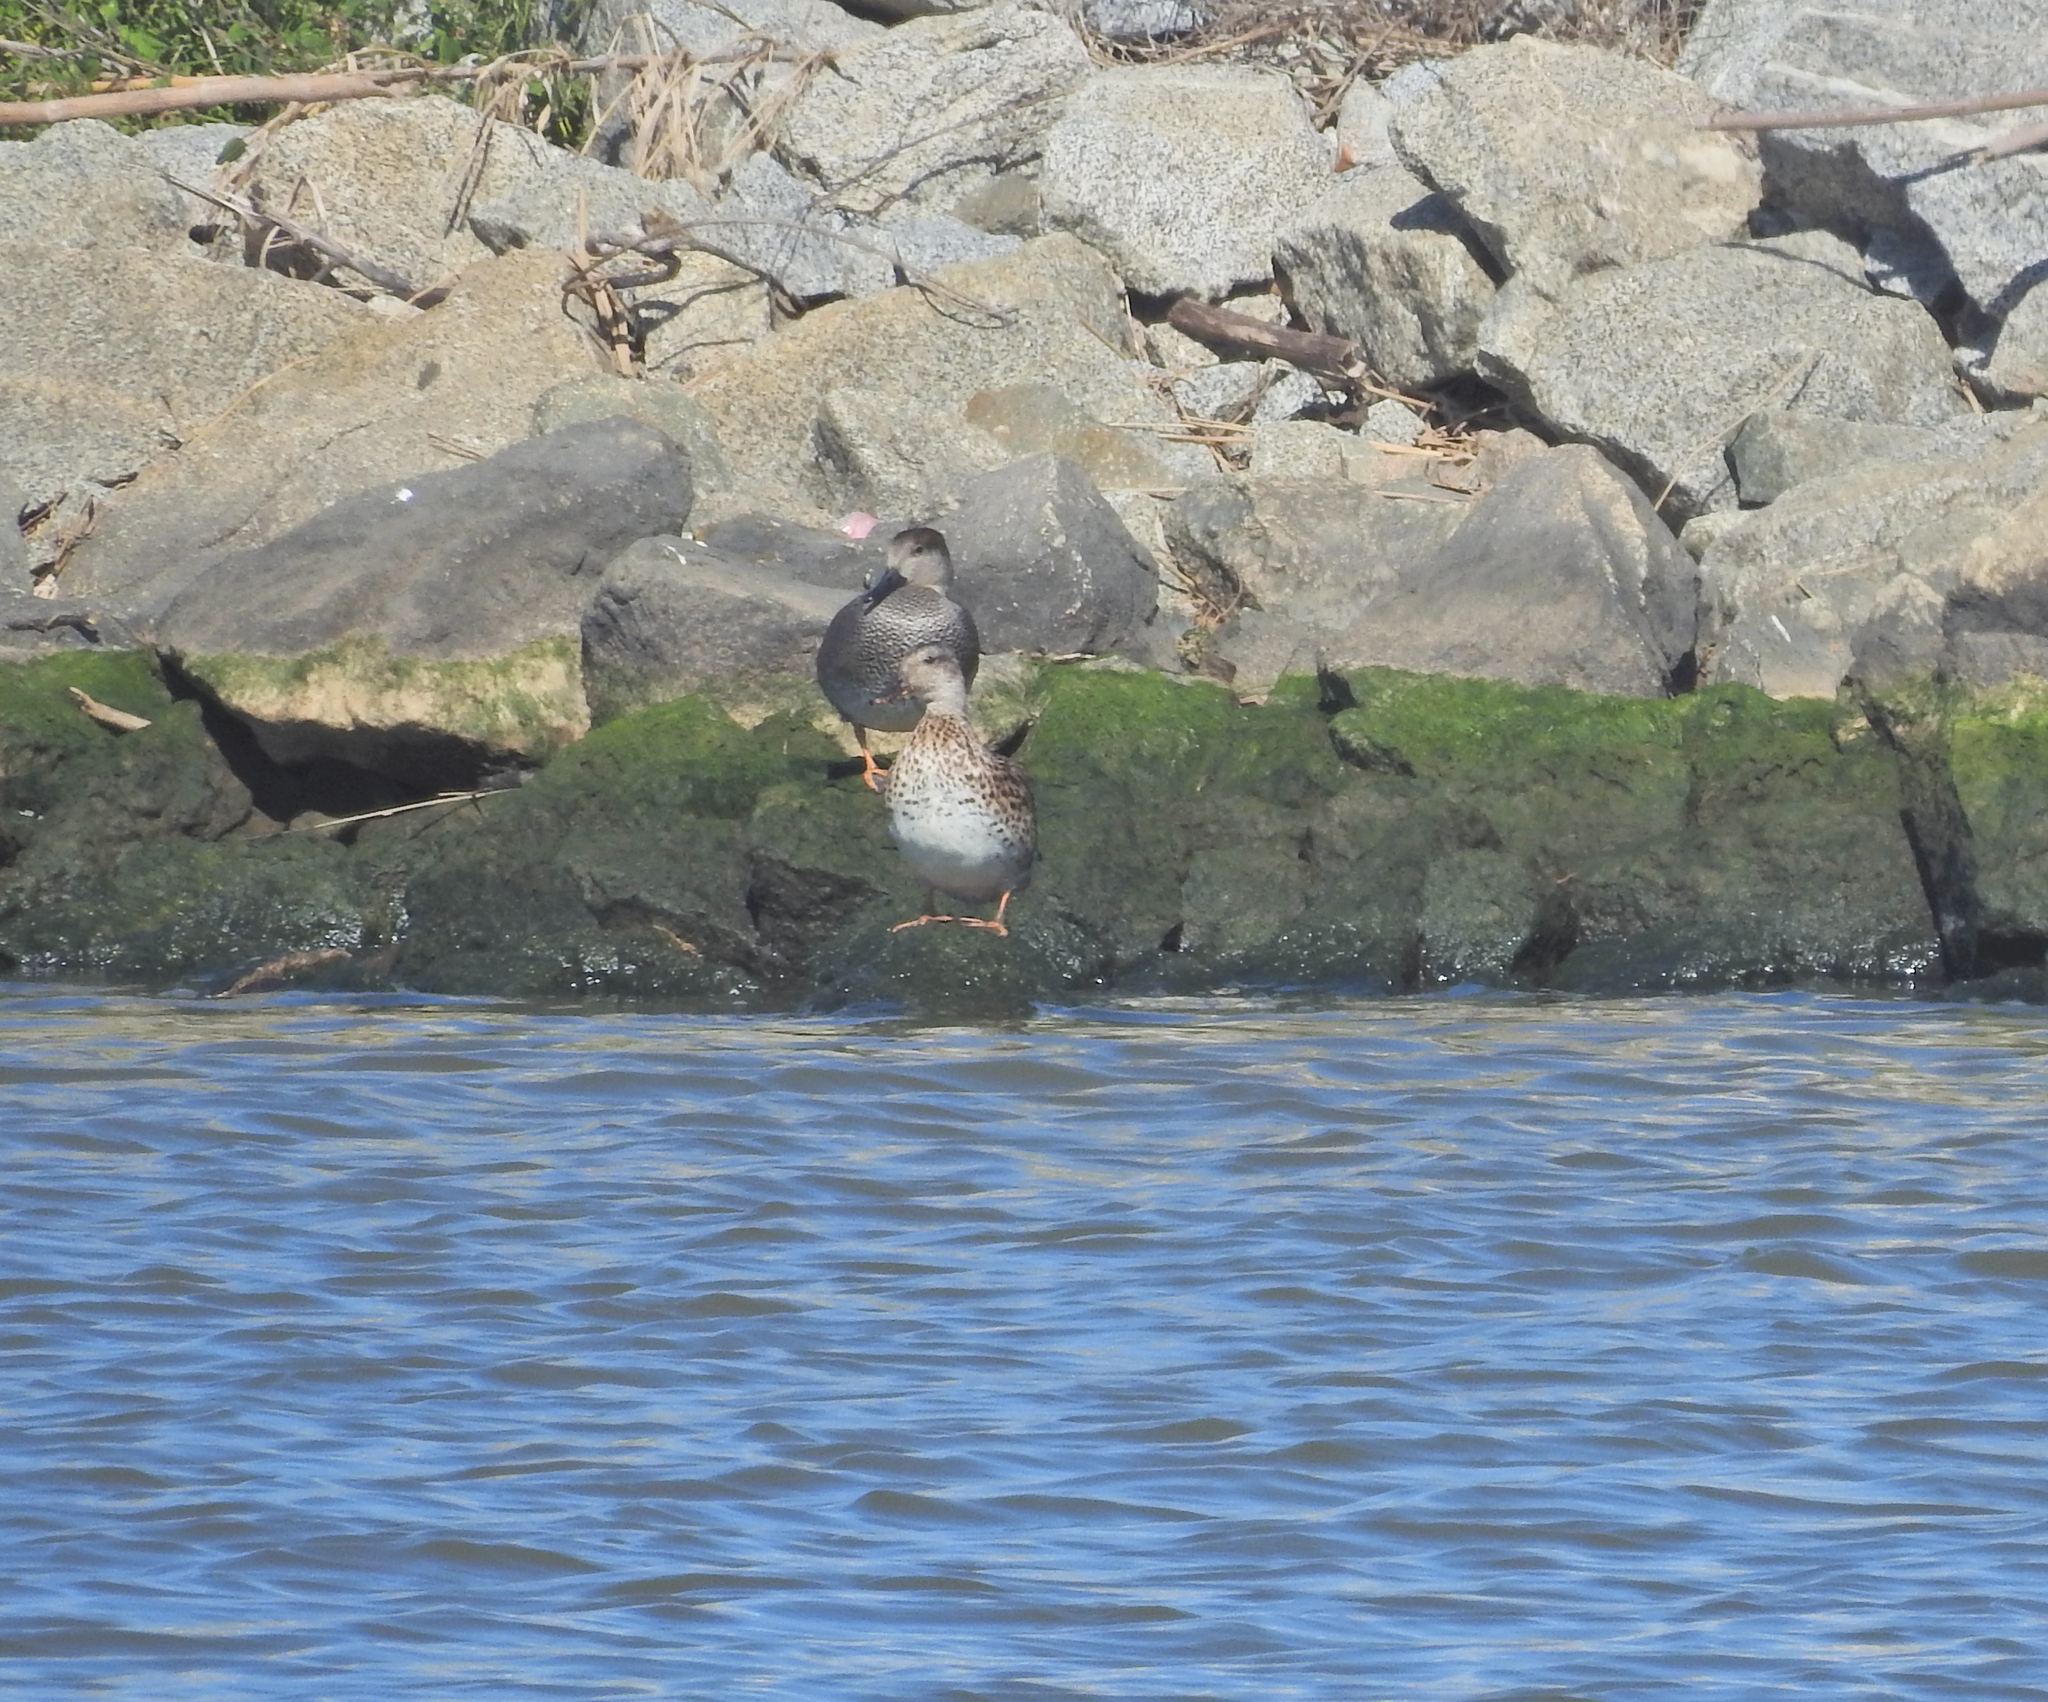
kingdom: Animalia
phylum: Chordata
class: Aves
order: Anseriformes
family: Anatidae
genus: Mareca
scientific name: Mareca strepera
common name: Gadwall
